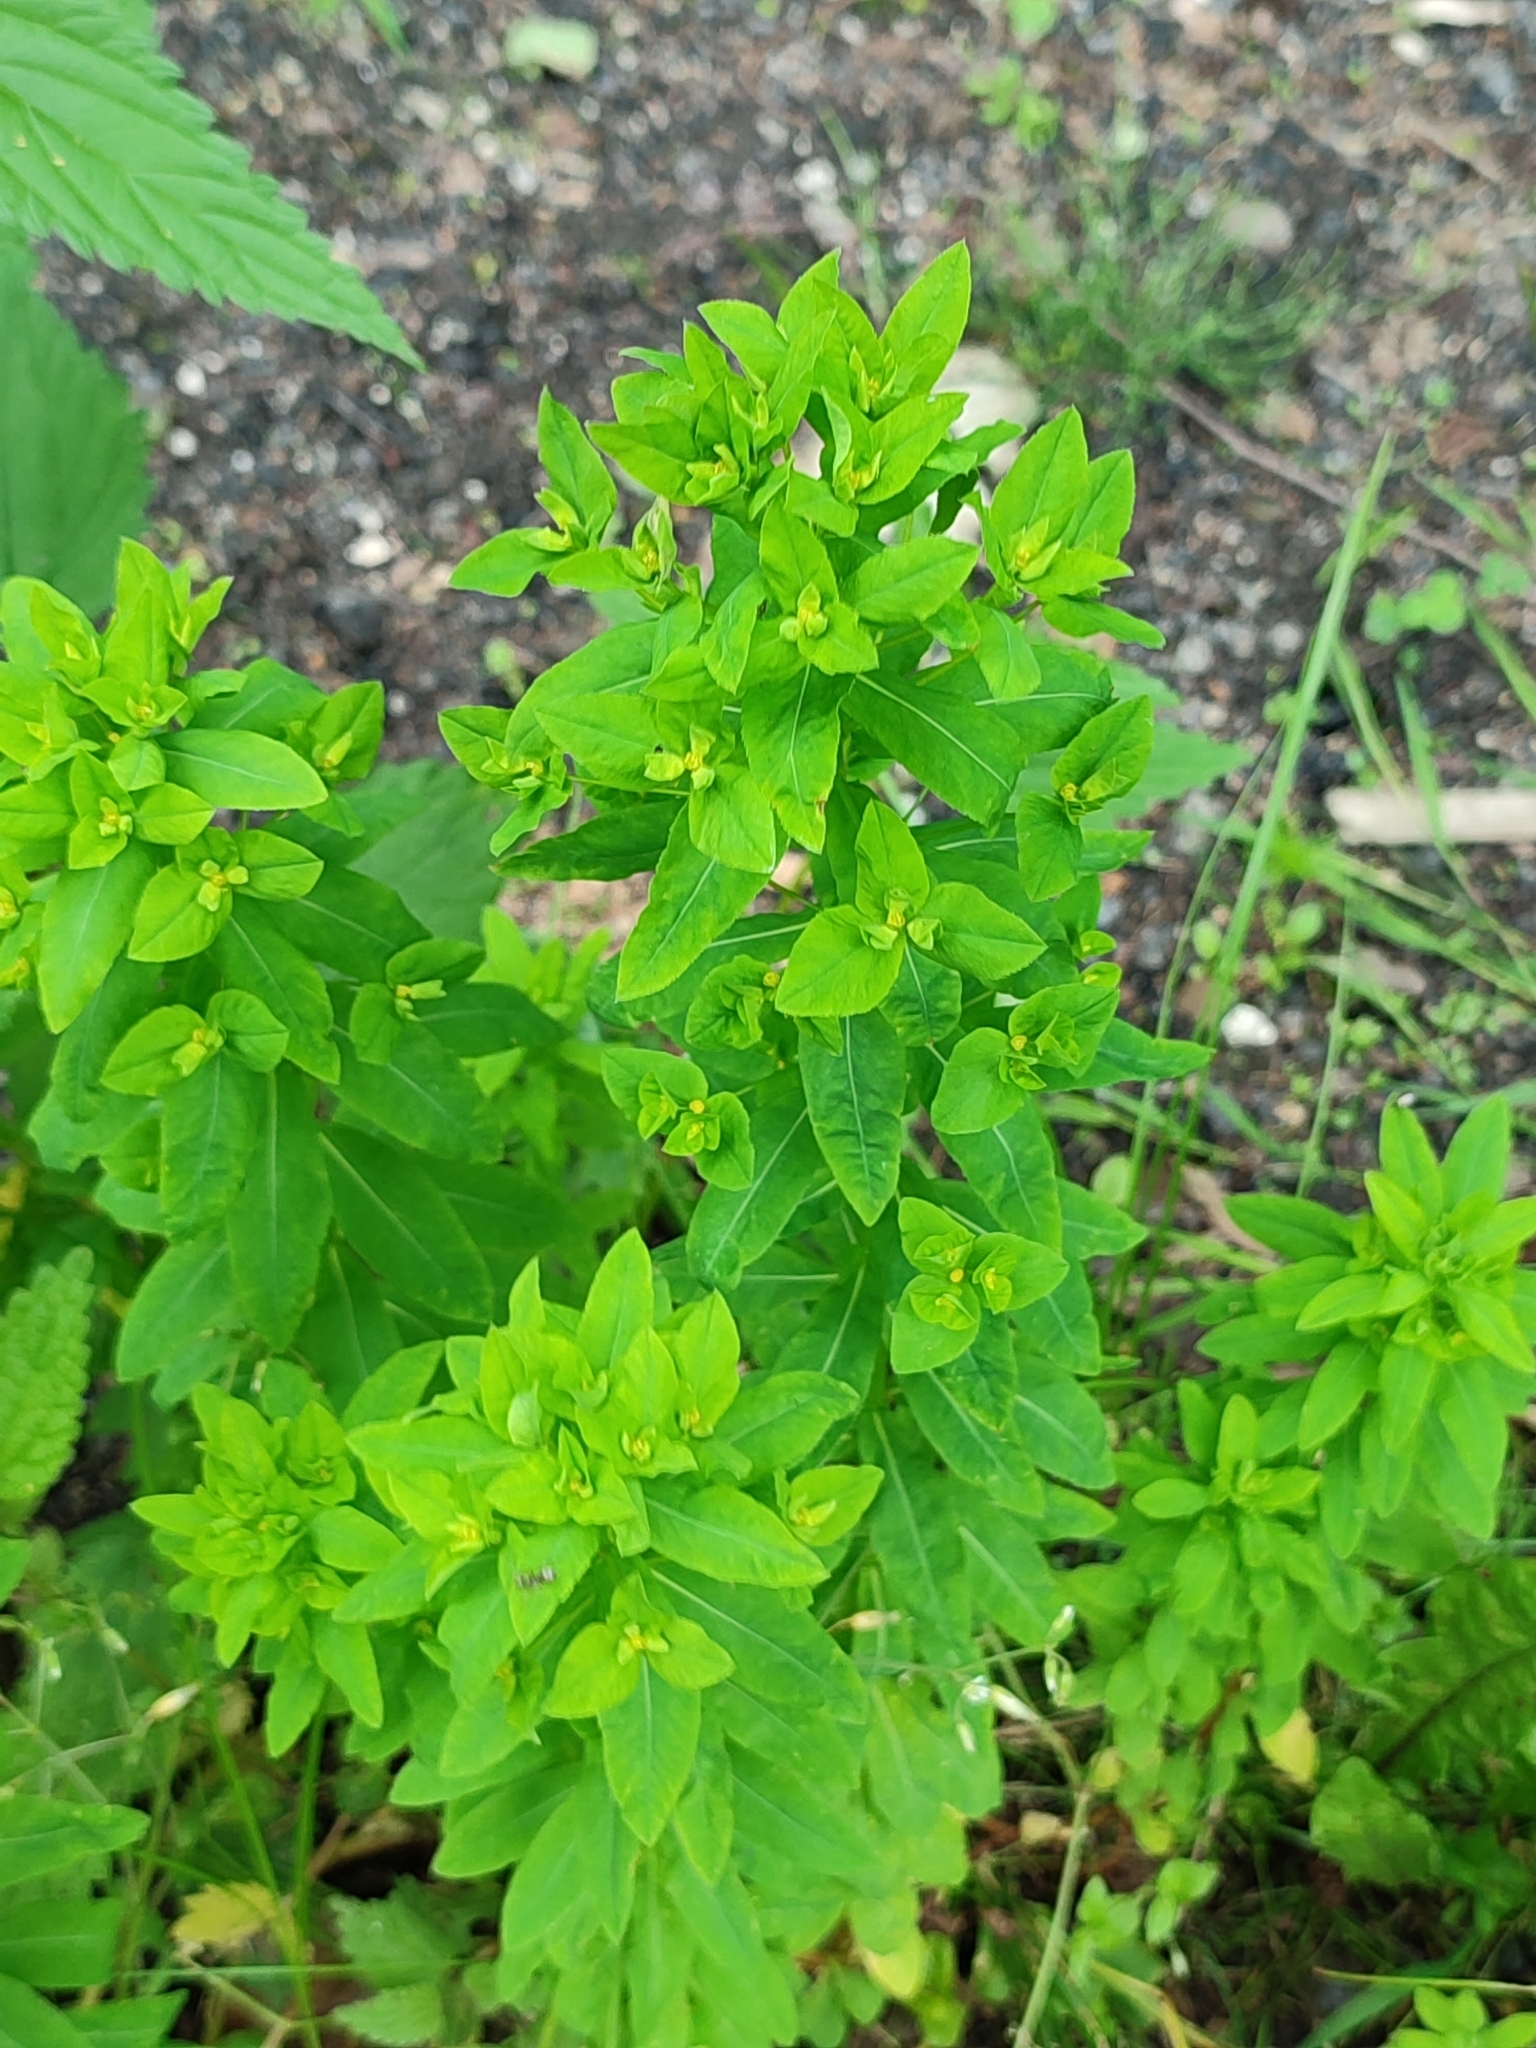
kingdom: Plantae
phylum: Tracheophyta
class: Magnoliopsida
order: Malpighiales
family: Euphorbiaceae
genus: Euphorbia
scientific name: Euphorbia stricta
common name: Upright spurge
